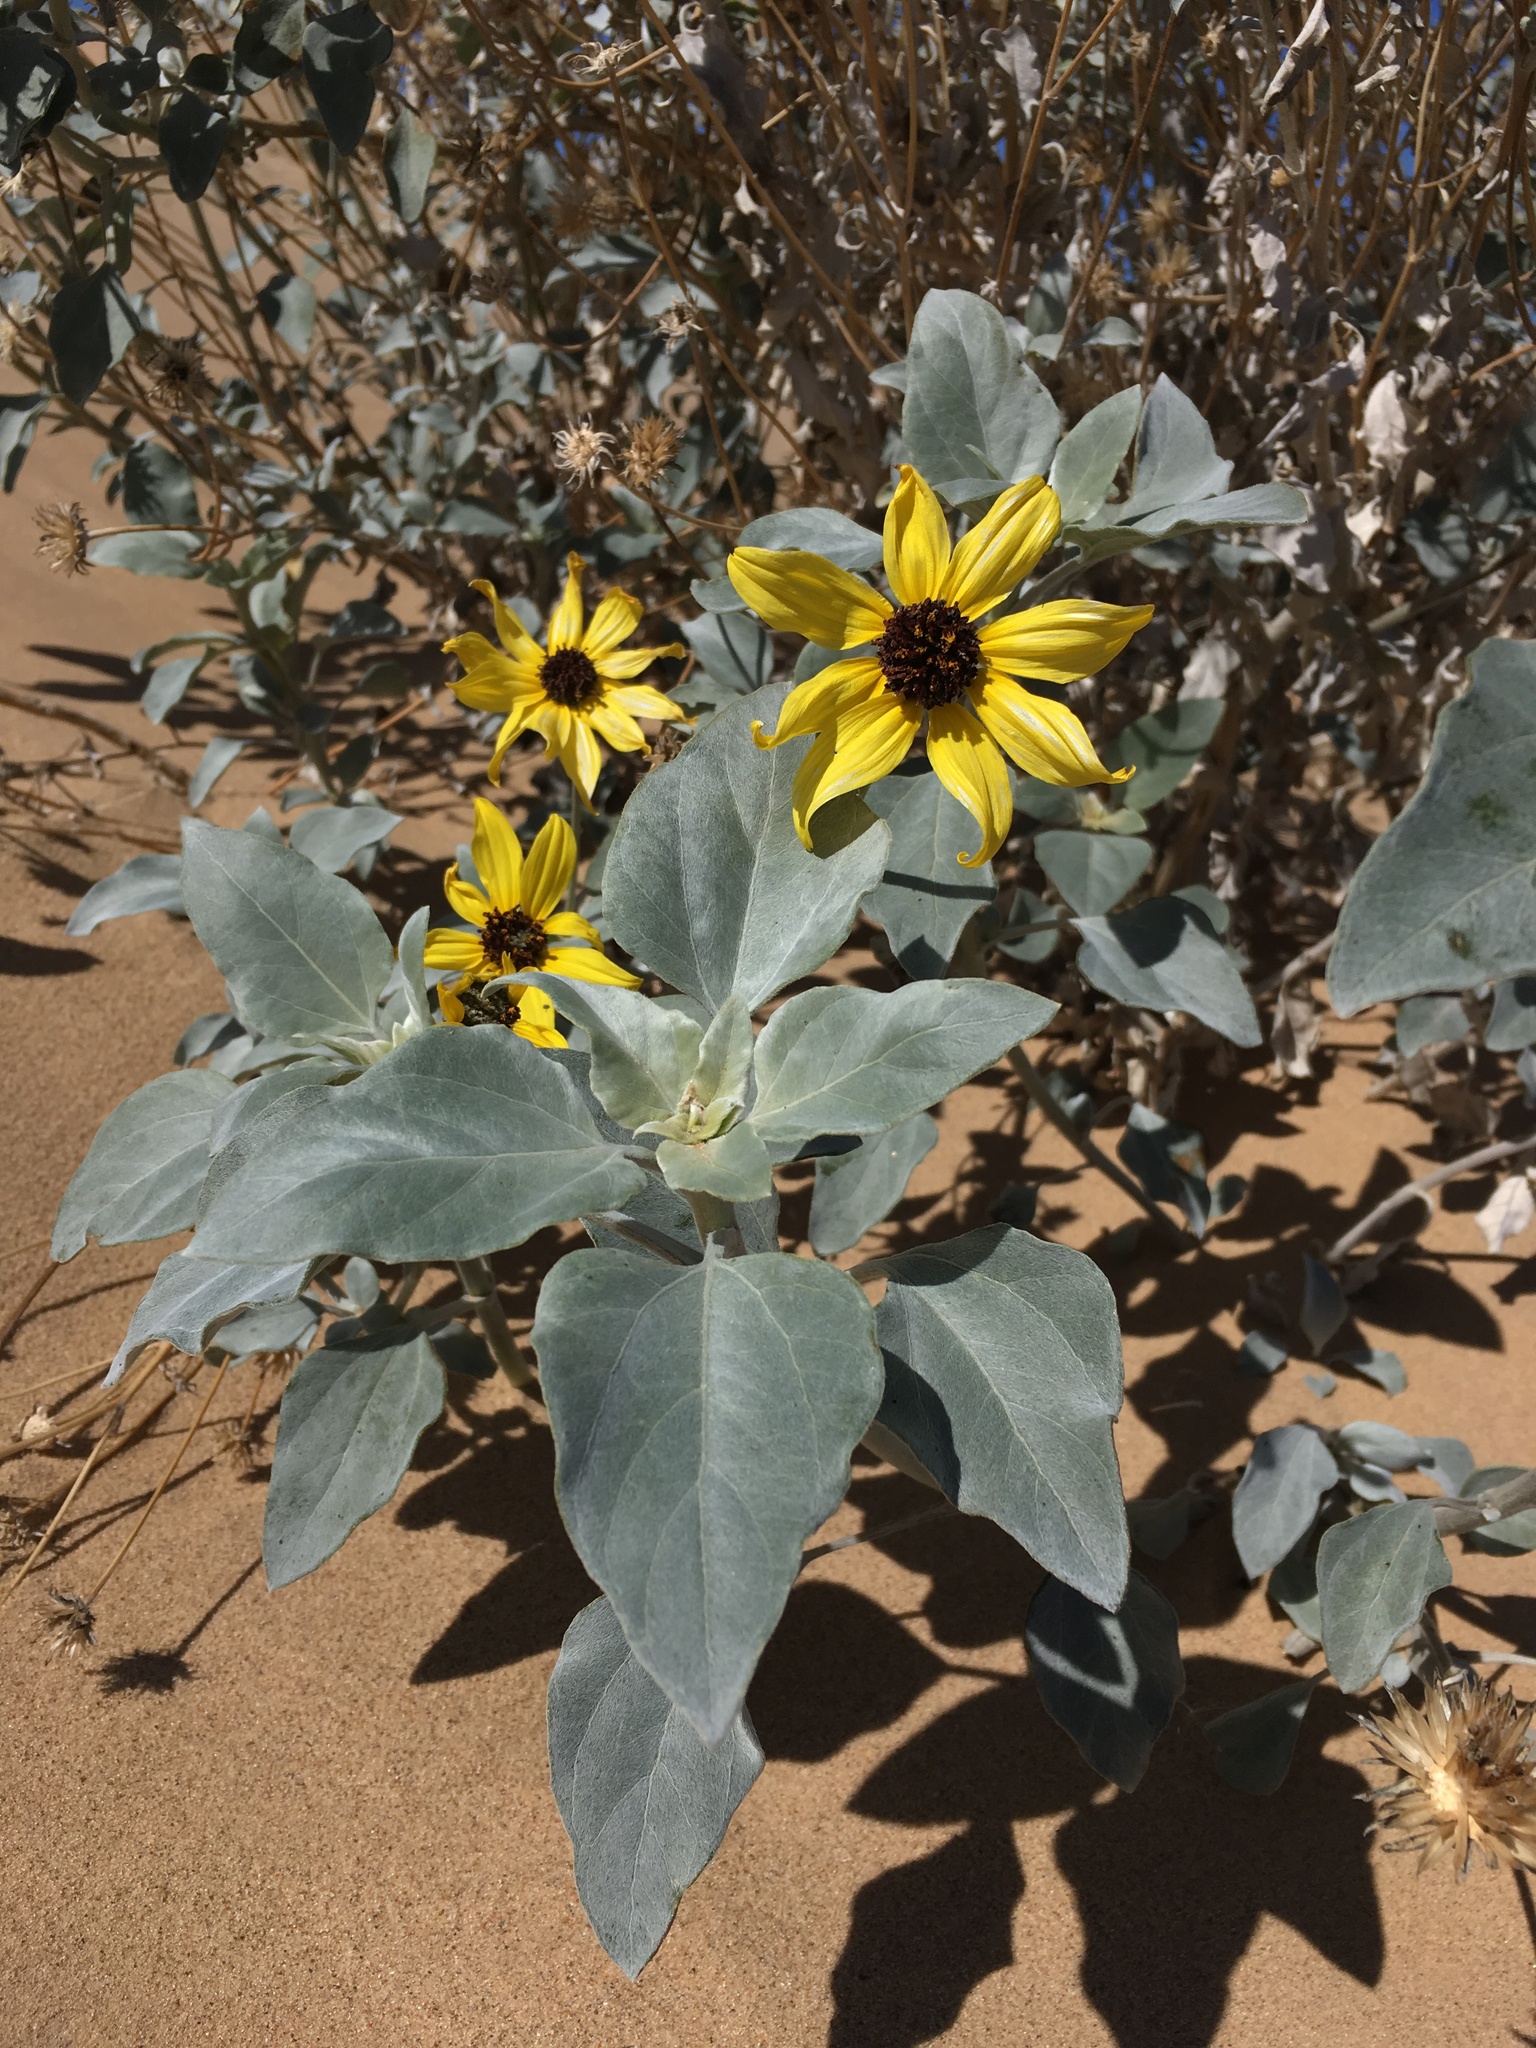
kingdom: Plantae
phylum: Tracheophyta
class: Magnoliopsida
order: Asterales
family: Asteraceae
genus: Helianthus
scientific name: Helianthus niveus
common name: Snowy sunflower
